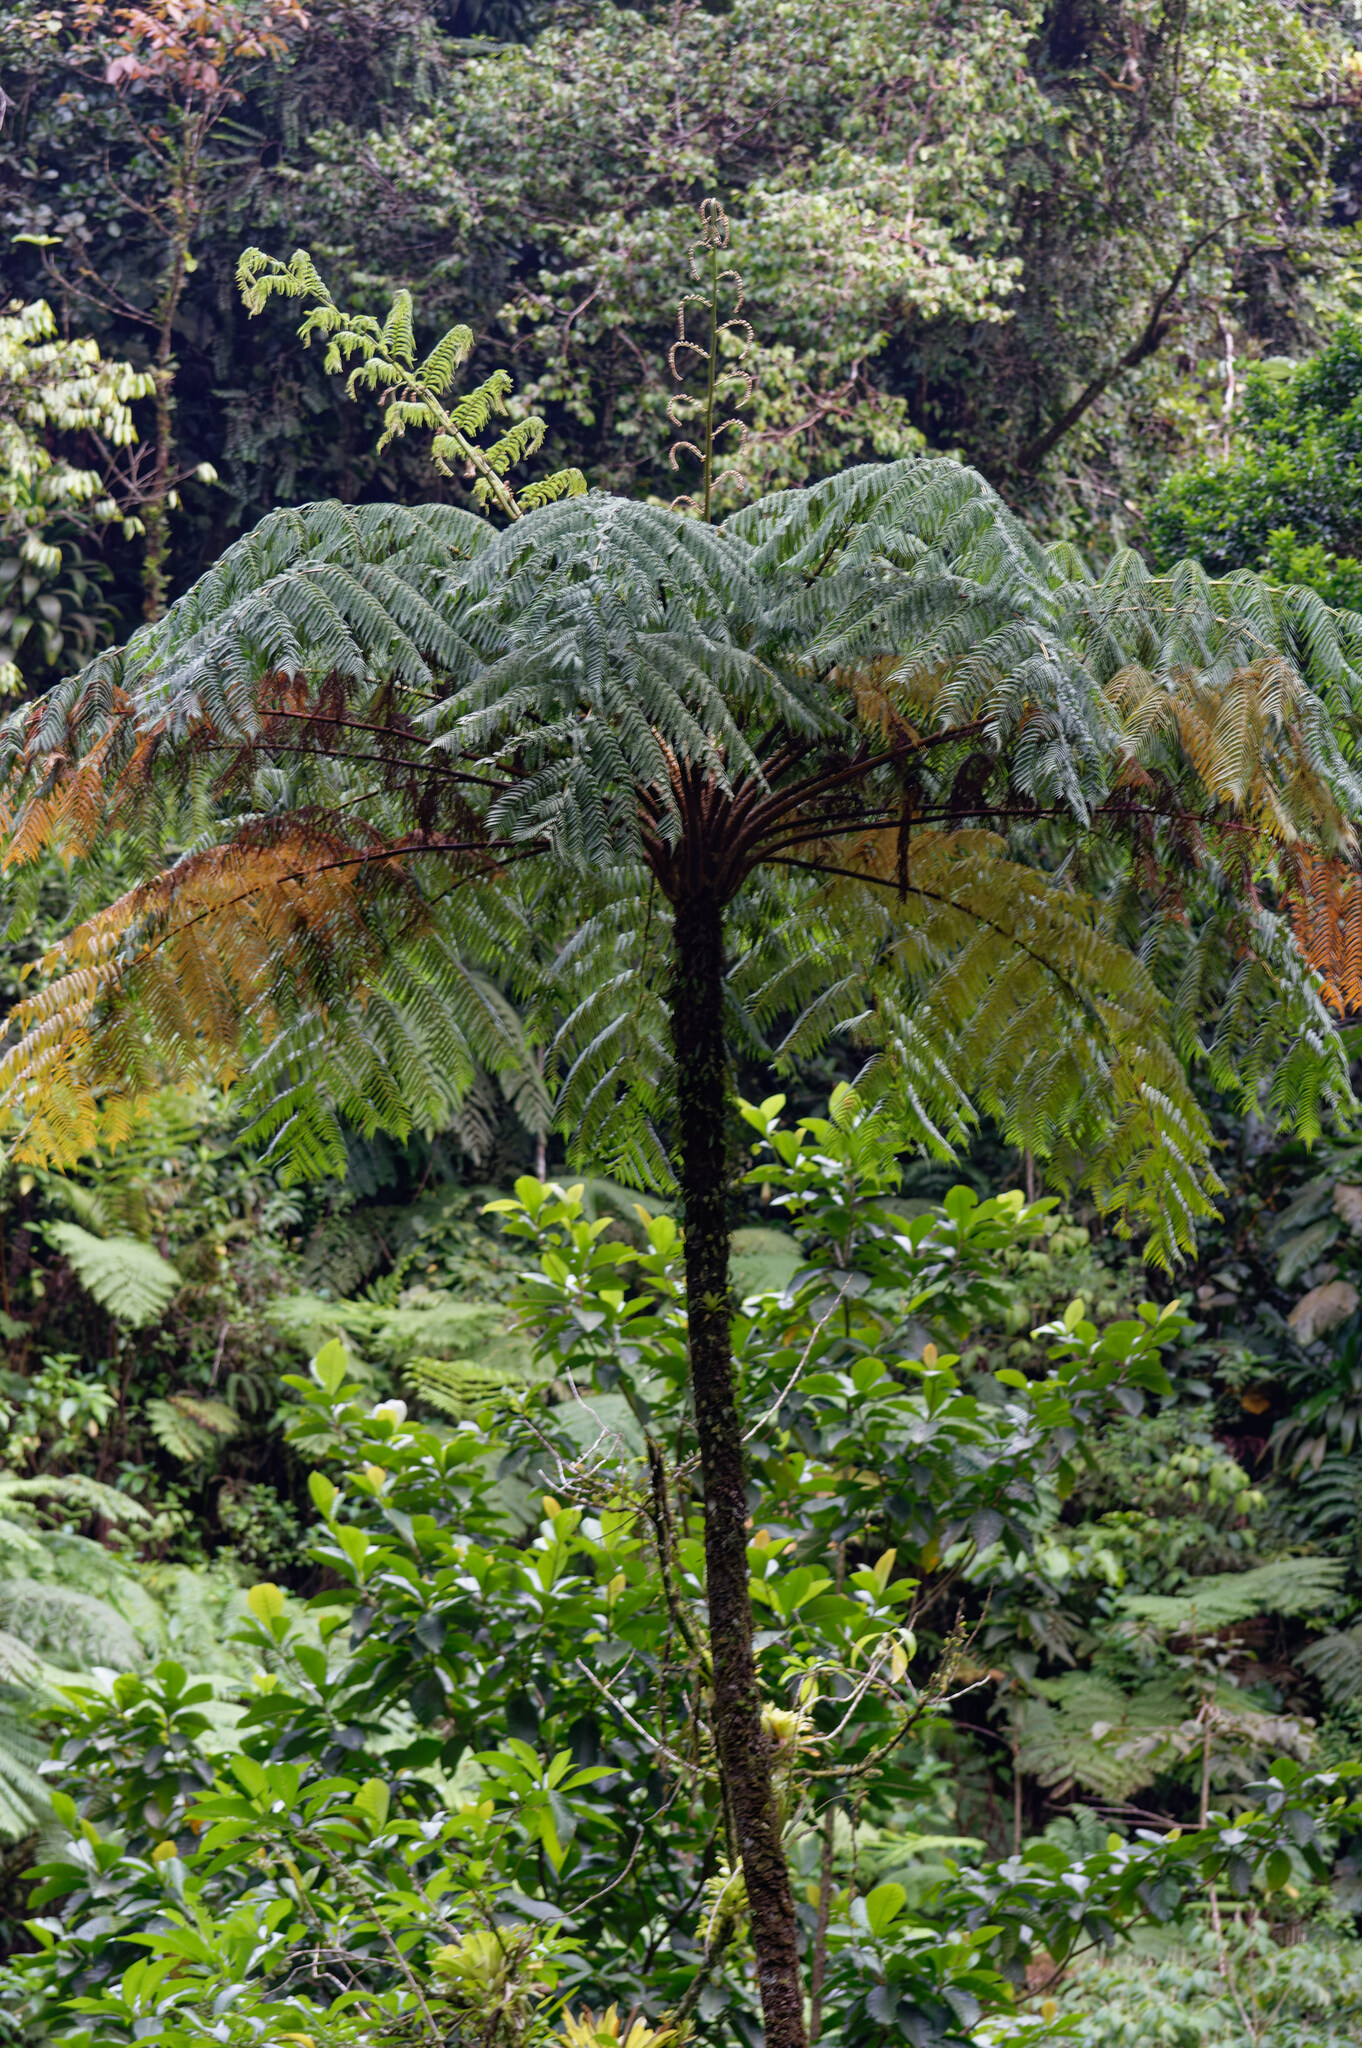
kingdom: Plantae
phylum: Tracheophyta
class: Polypodiopsida
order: Cyatheales
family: Cyatheaceae
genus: Cyathea
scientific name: Cyathea arborea
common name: West indian treefern
